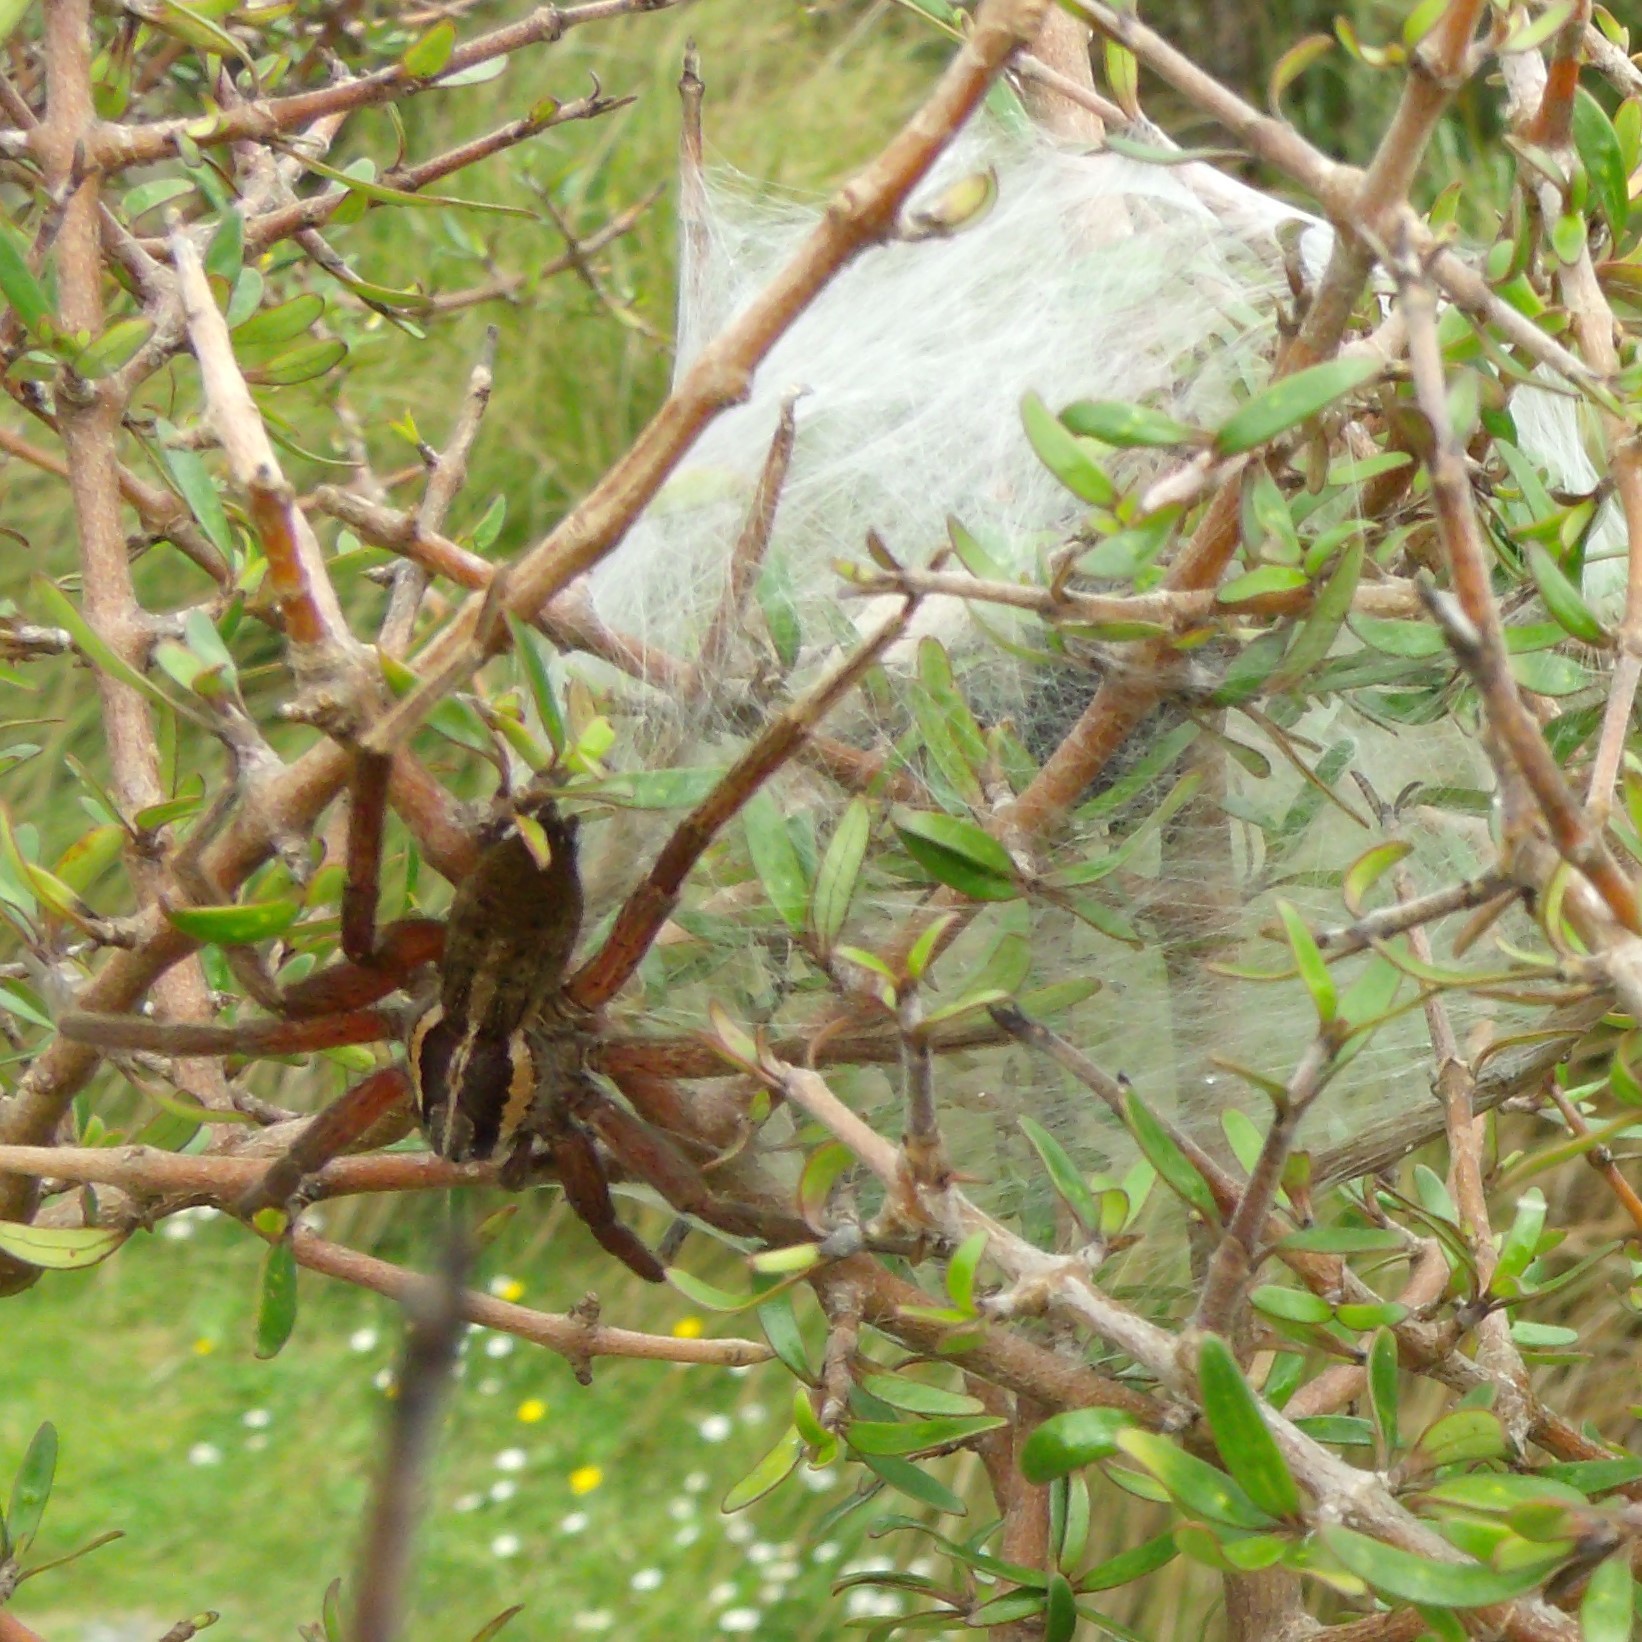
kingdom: Animalia
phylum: Arthropoda
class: Arachnida
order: Araneae
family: Pisauridae
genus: Dolomedes
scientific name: Dolomedes minor
